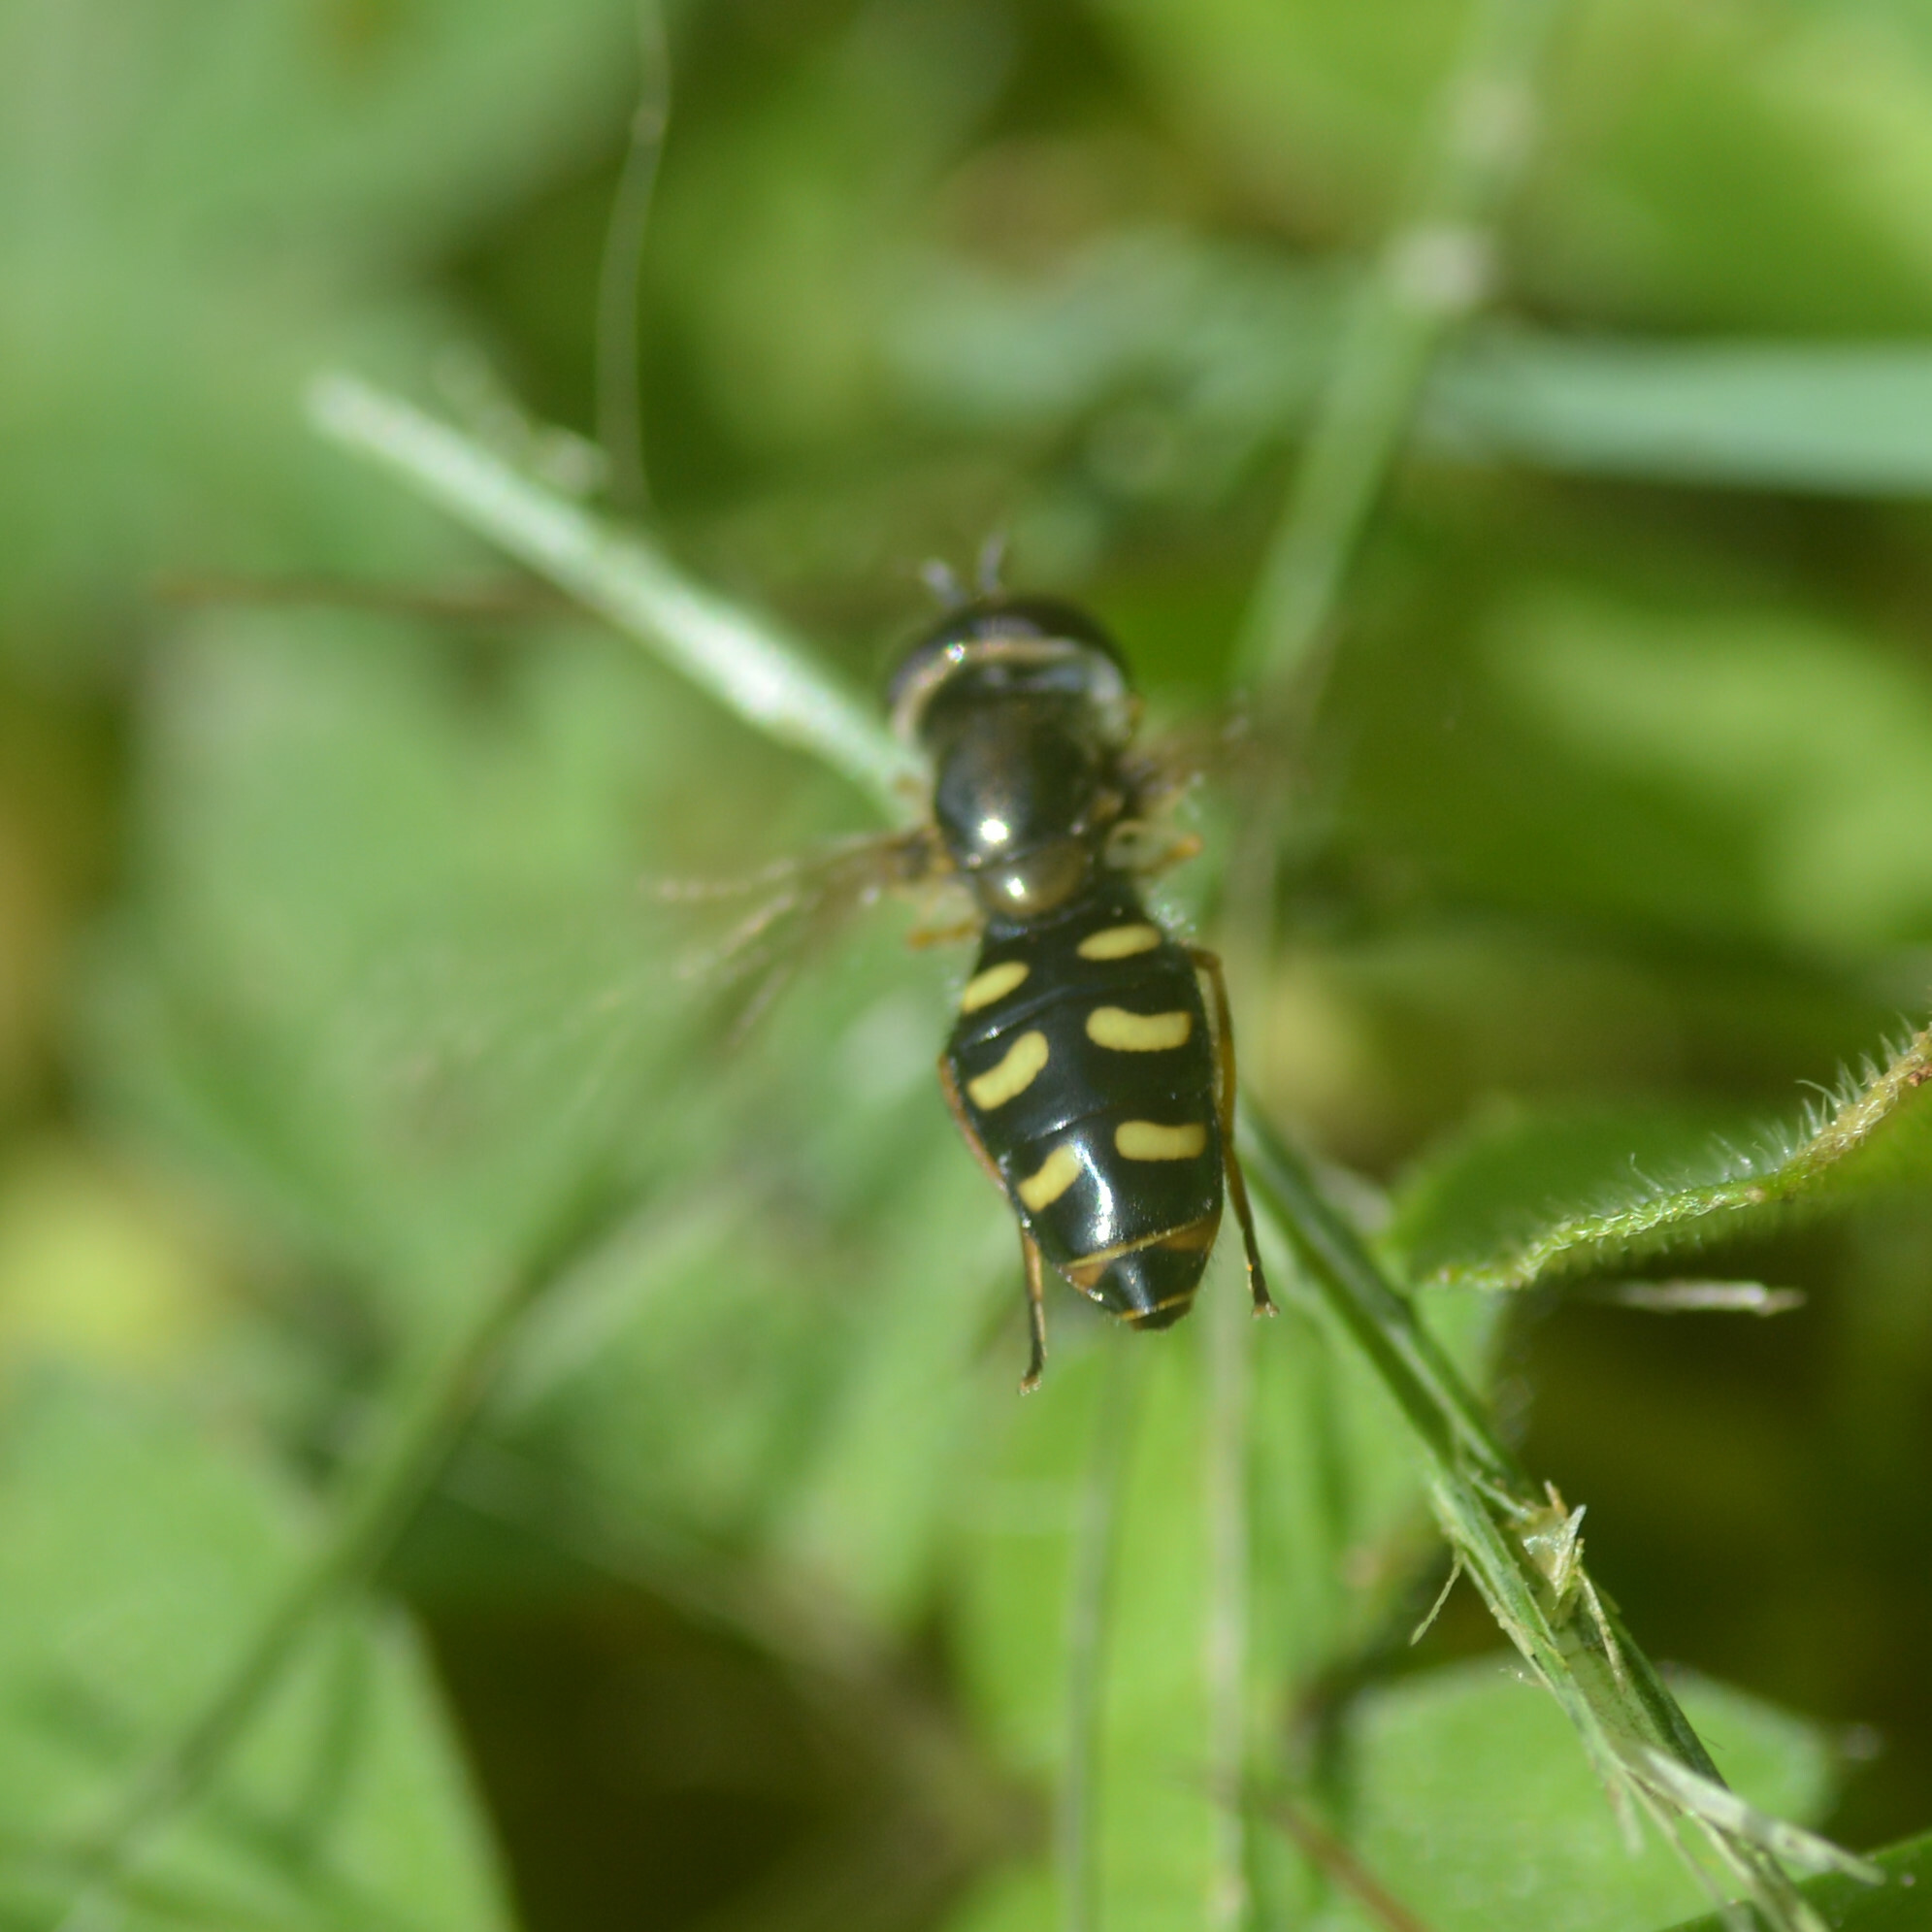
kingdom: Animalia
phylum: Arthropoda
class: Insecta
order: Diptera
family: Syrphidae
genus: Eupeodes
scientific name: Eupeodes
